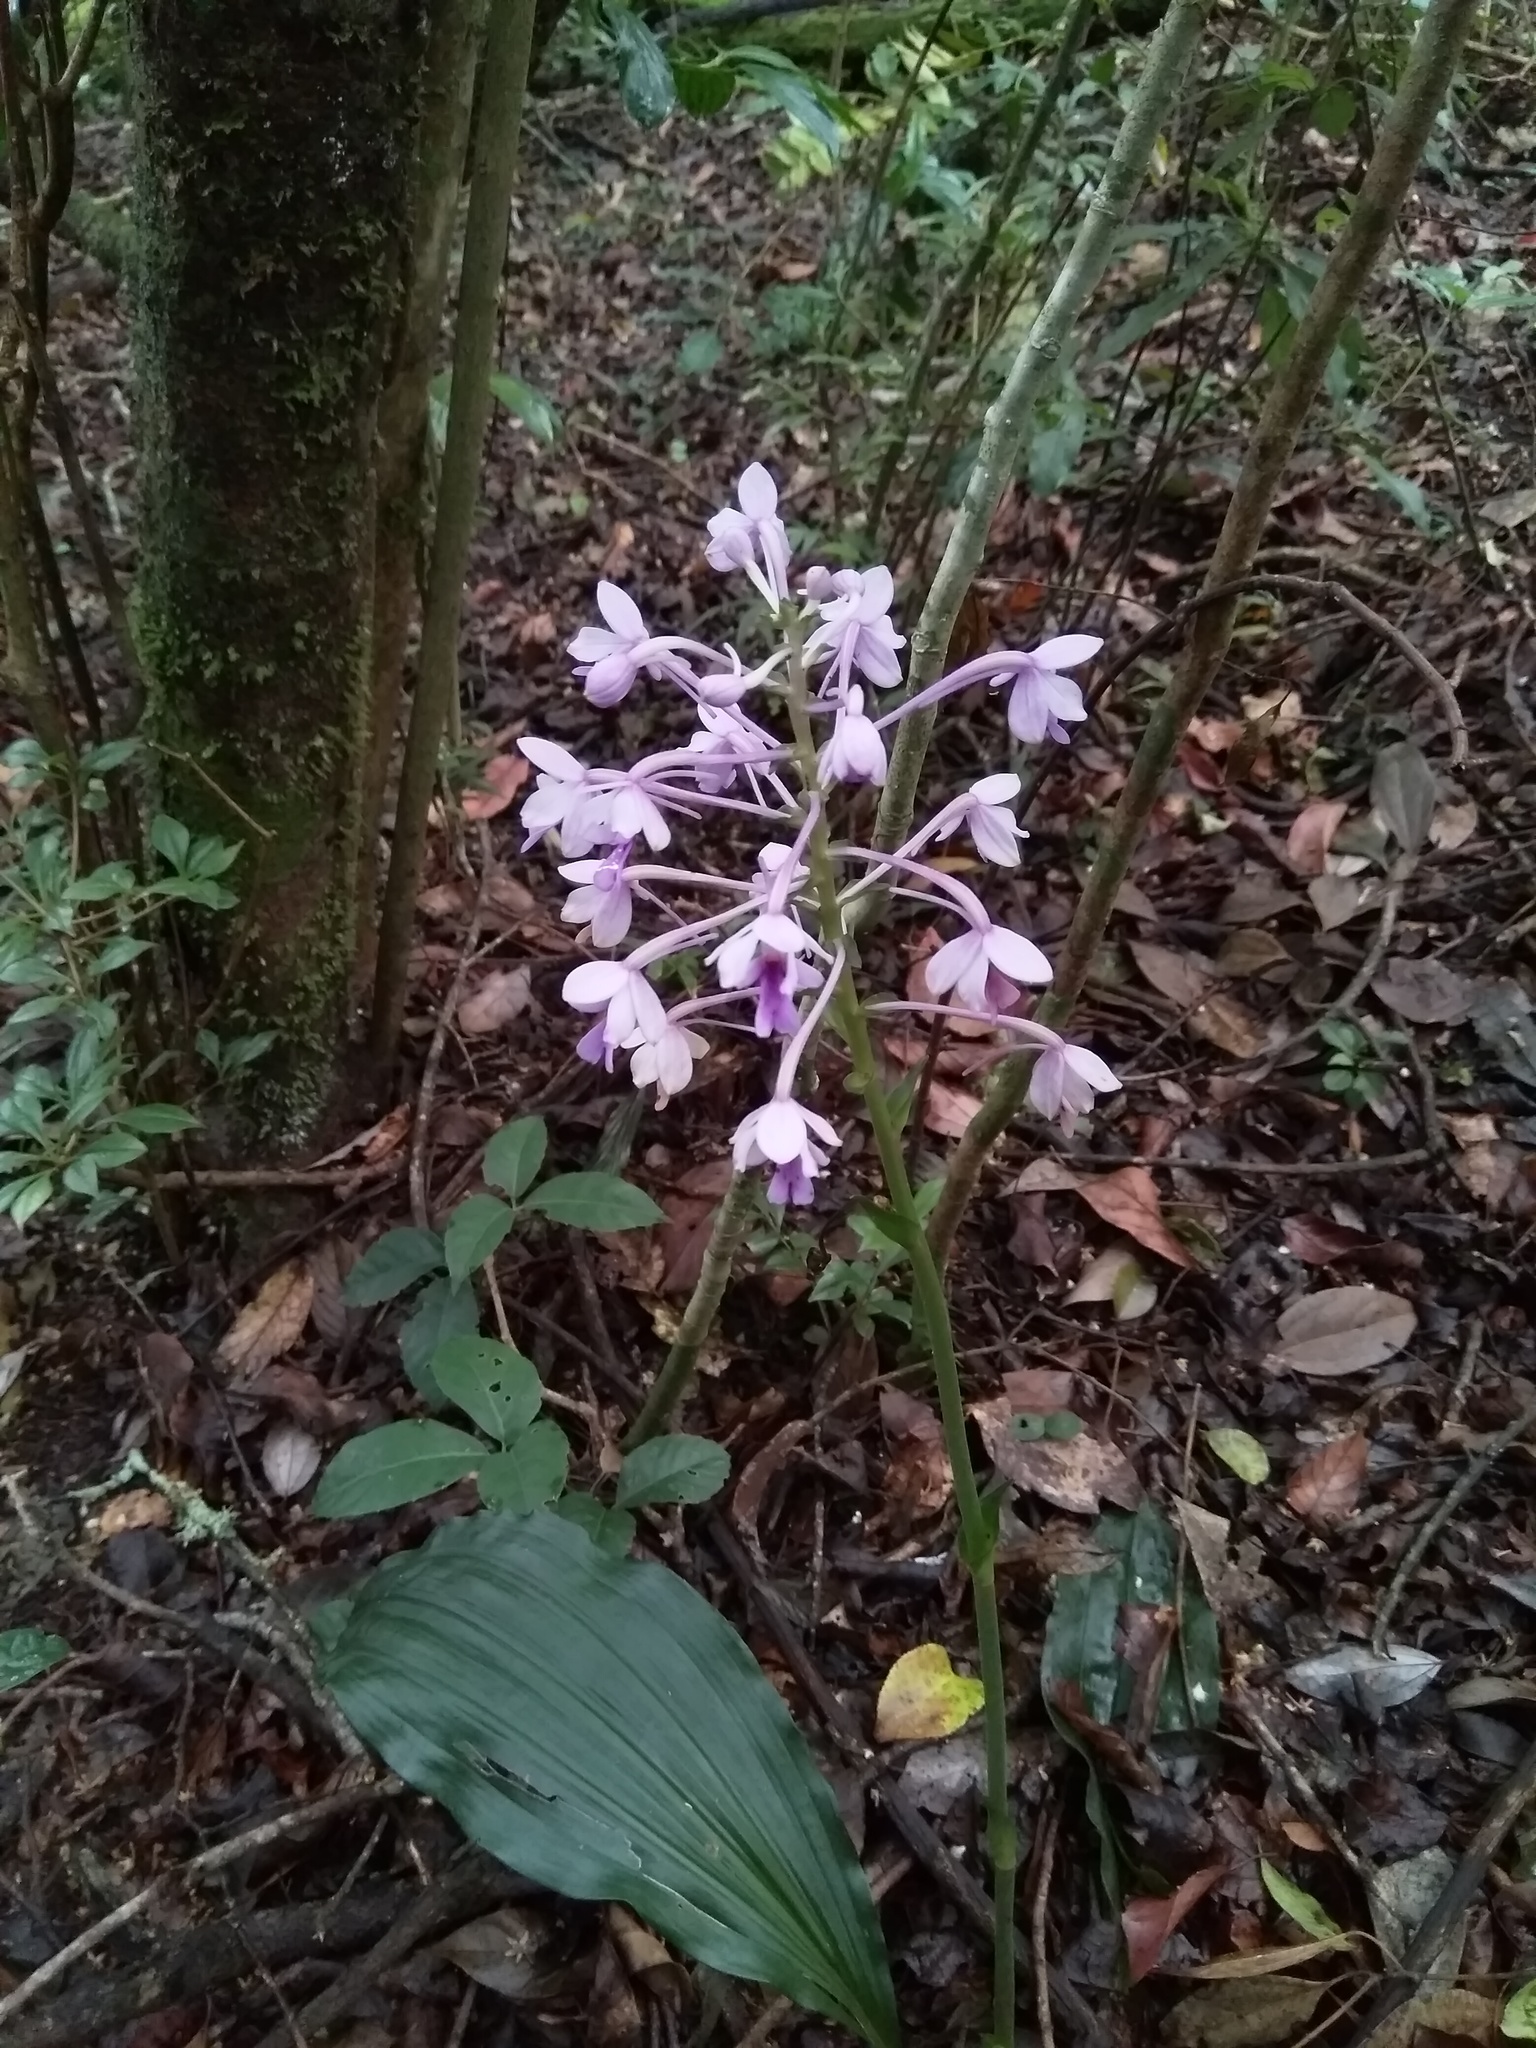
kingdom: Plantae
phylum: Tracheophyta
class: Liliopsida
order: Asparagales
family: Orchidaceae
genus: Calanthe
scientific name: Calanthe masuca
